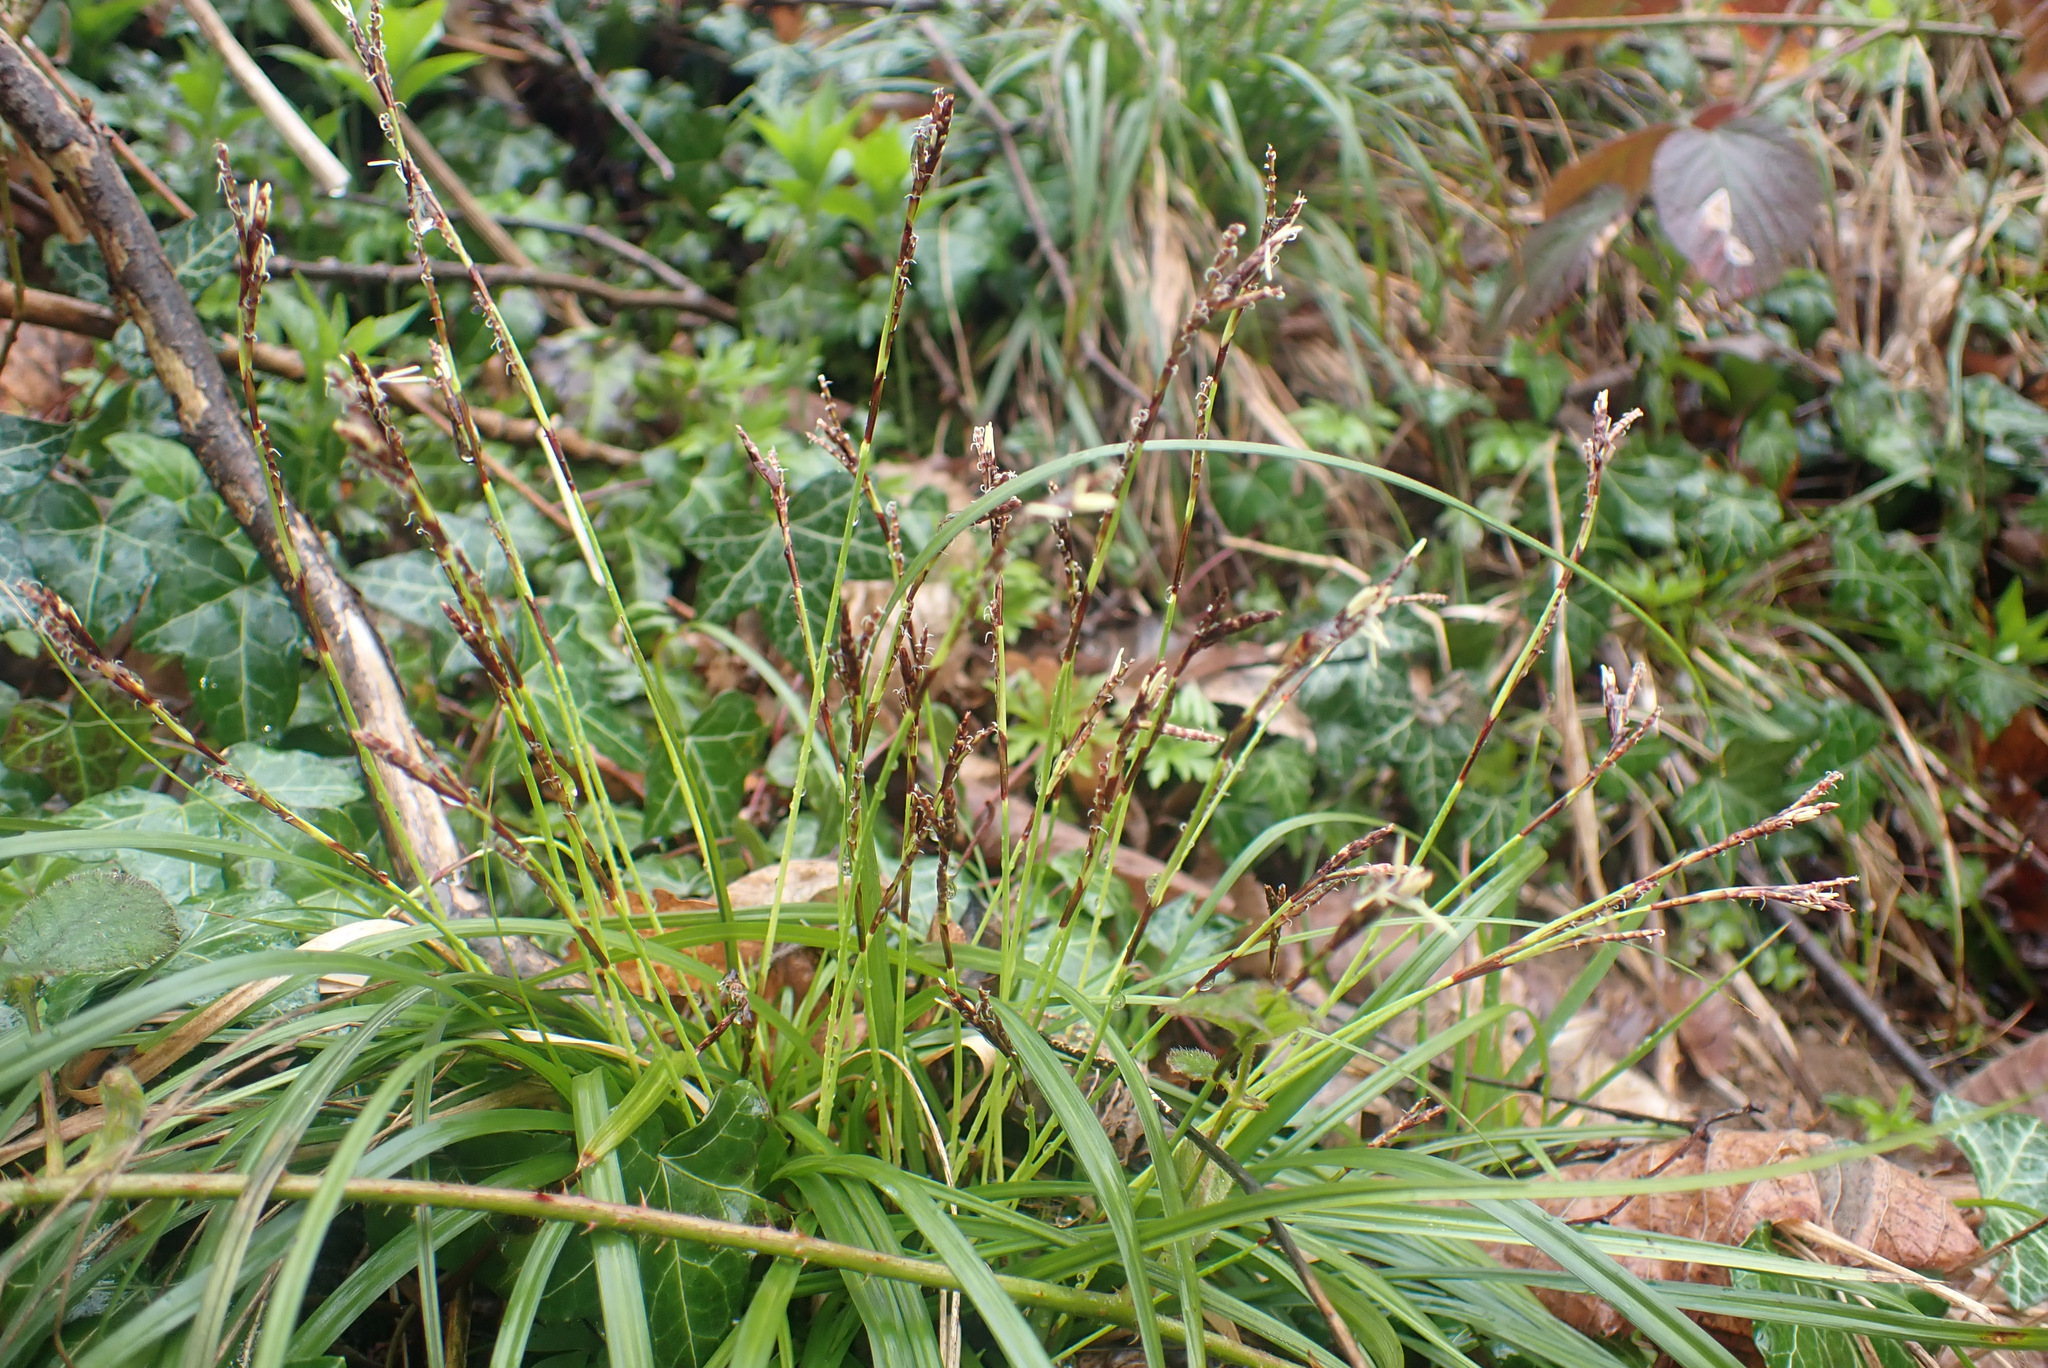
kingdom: Plantae
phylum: Tracheophyta
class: Liliopsida
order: Poales
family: Cyperaceae
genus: Carex
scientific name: Carex digitata
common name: Fingered sedge
